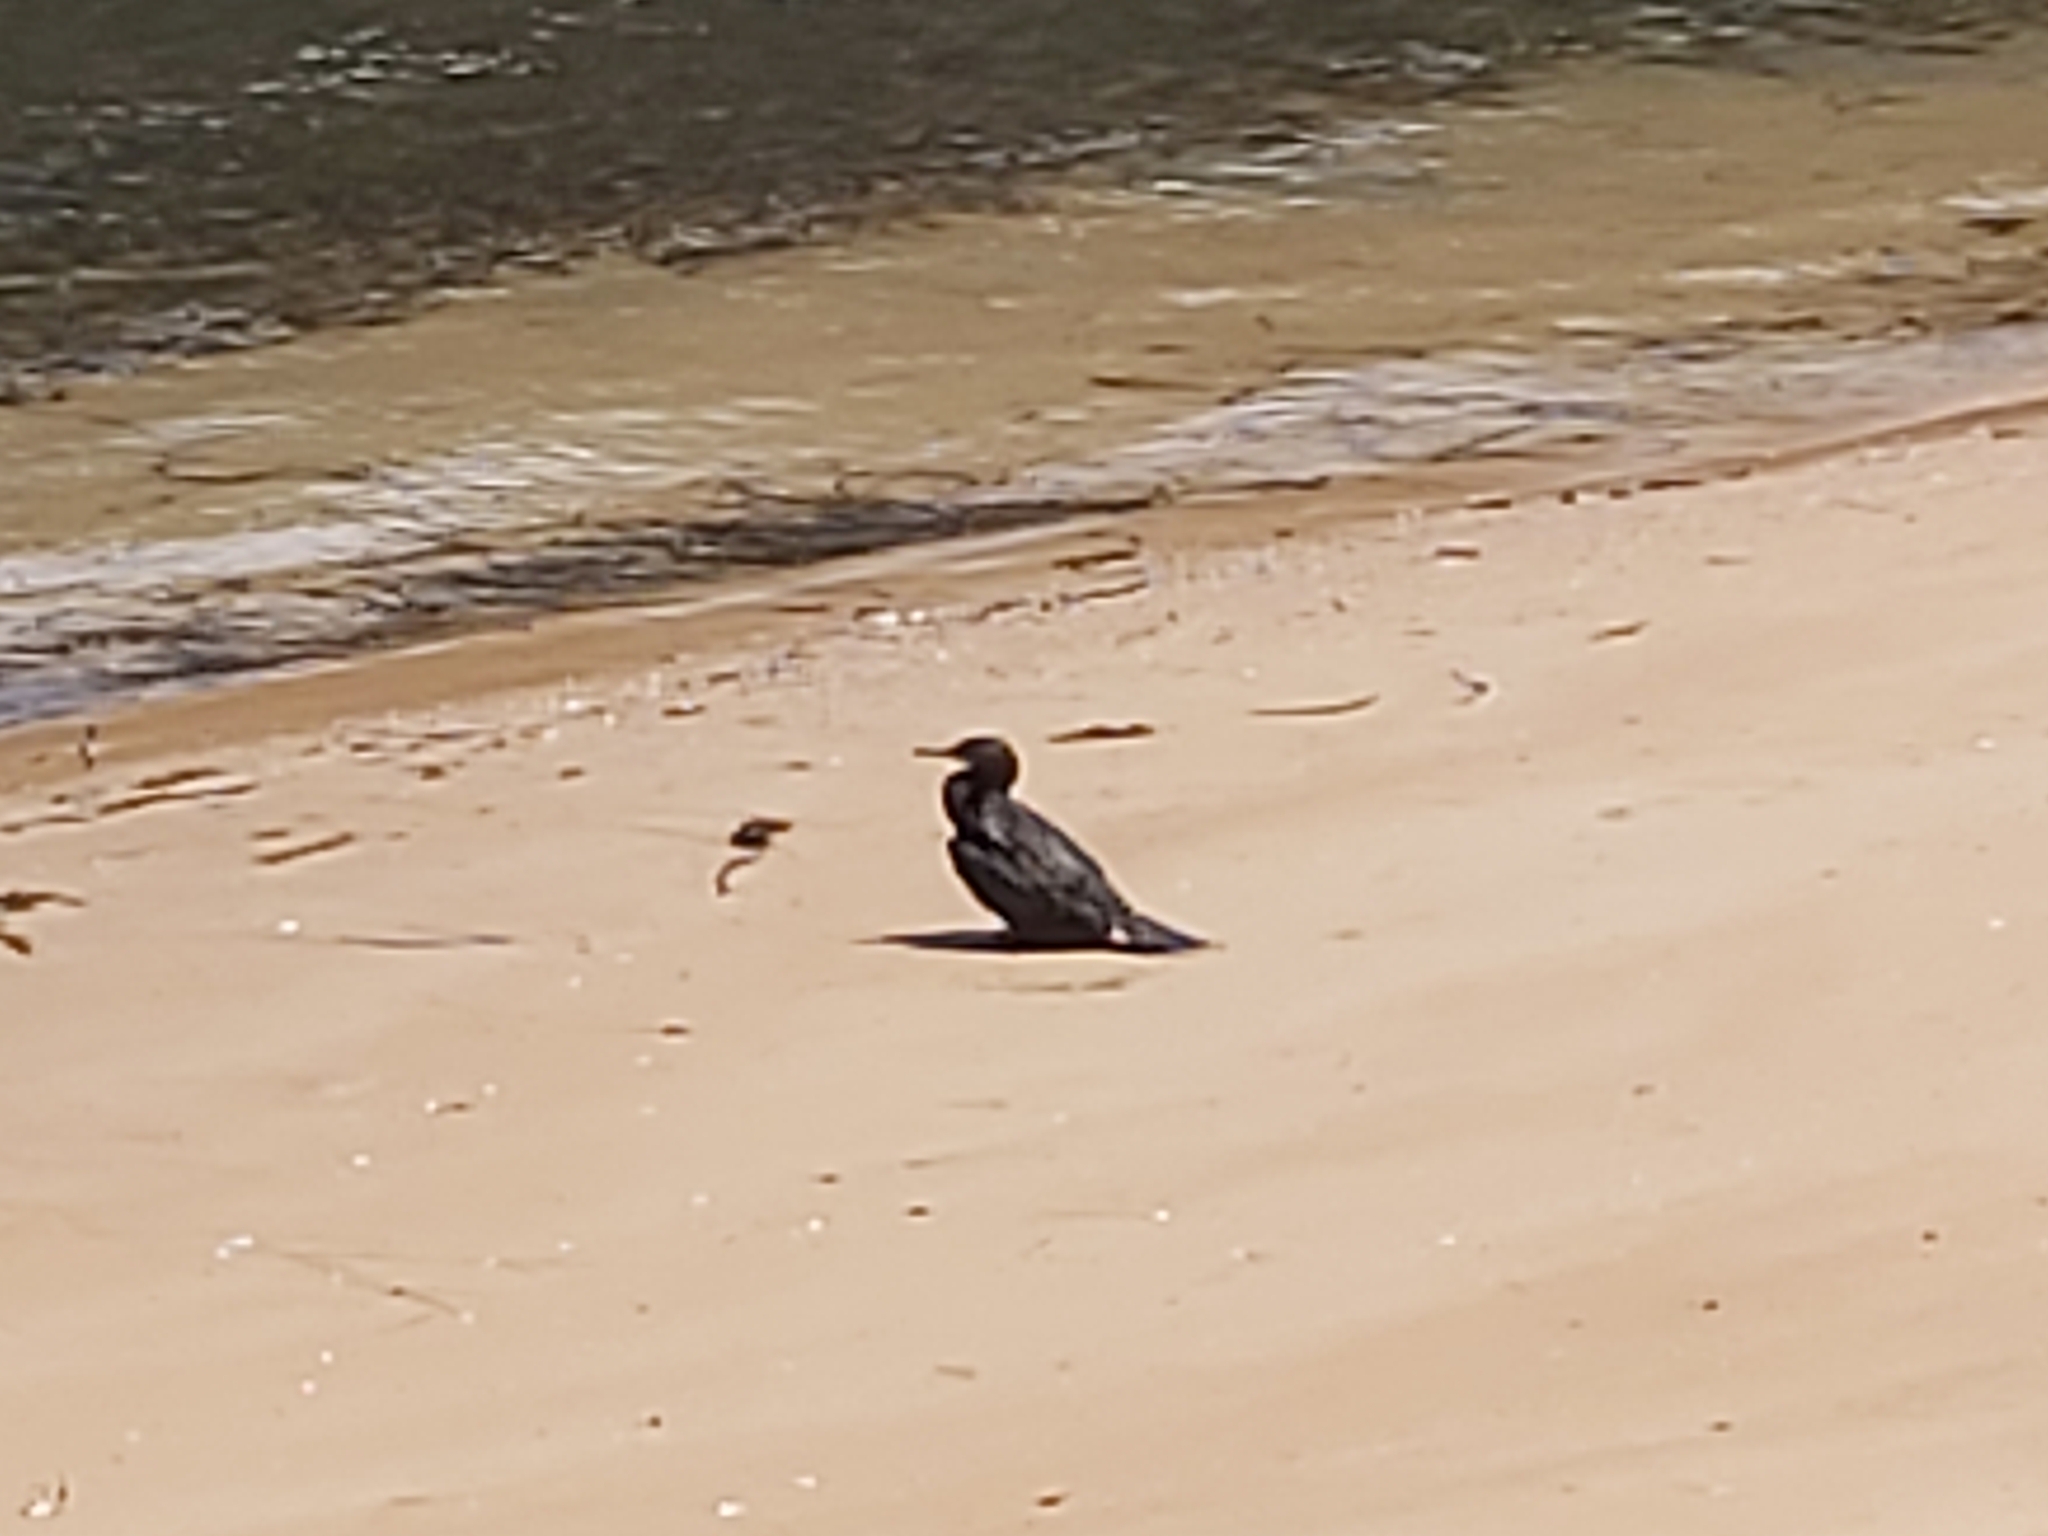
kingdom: Animalia
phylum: Chordata
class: Aves
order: Suliformes
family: Phalacrocoracidae
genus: Phalacrocorax
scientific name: Phalacrocorax sulcirostris
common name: Little black cormorant
